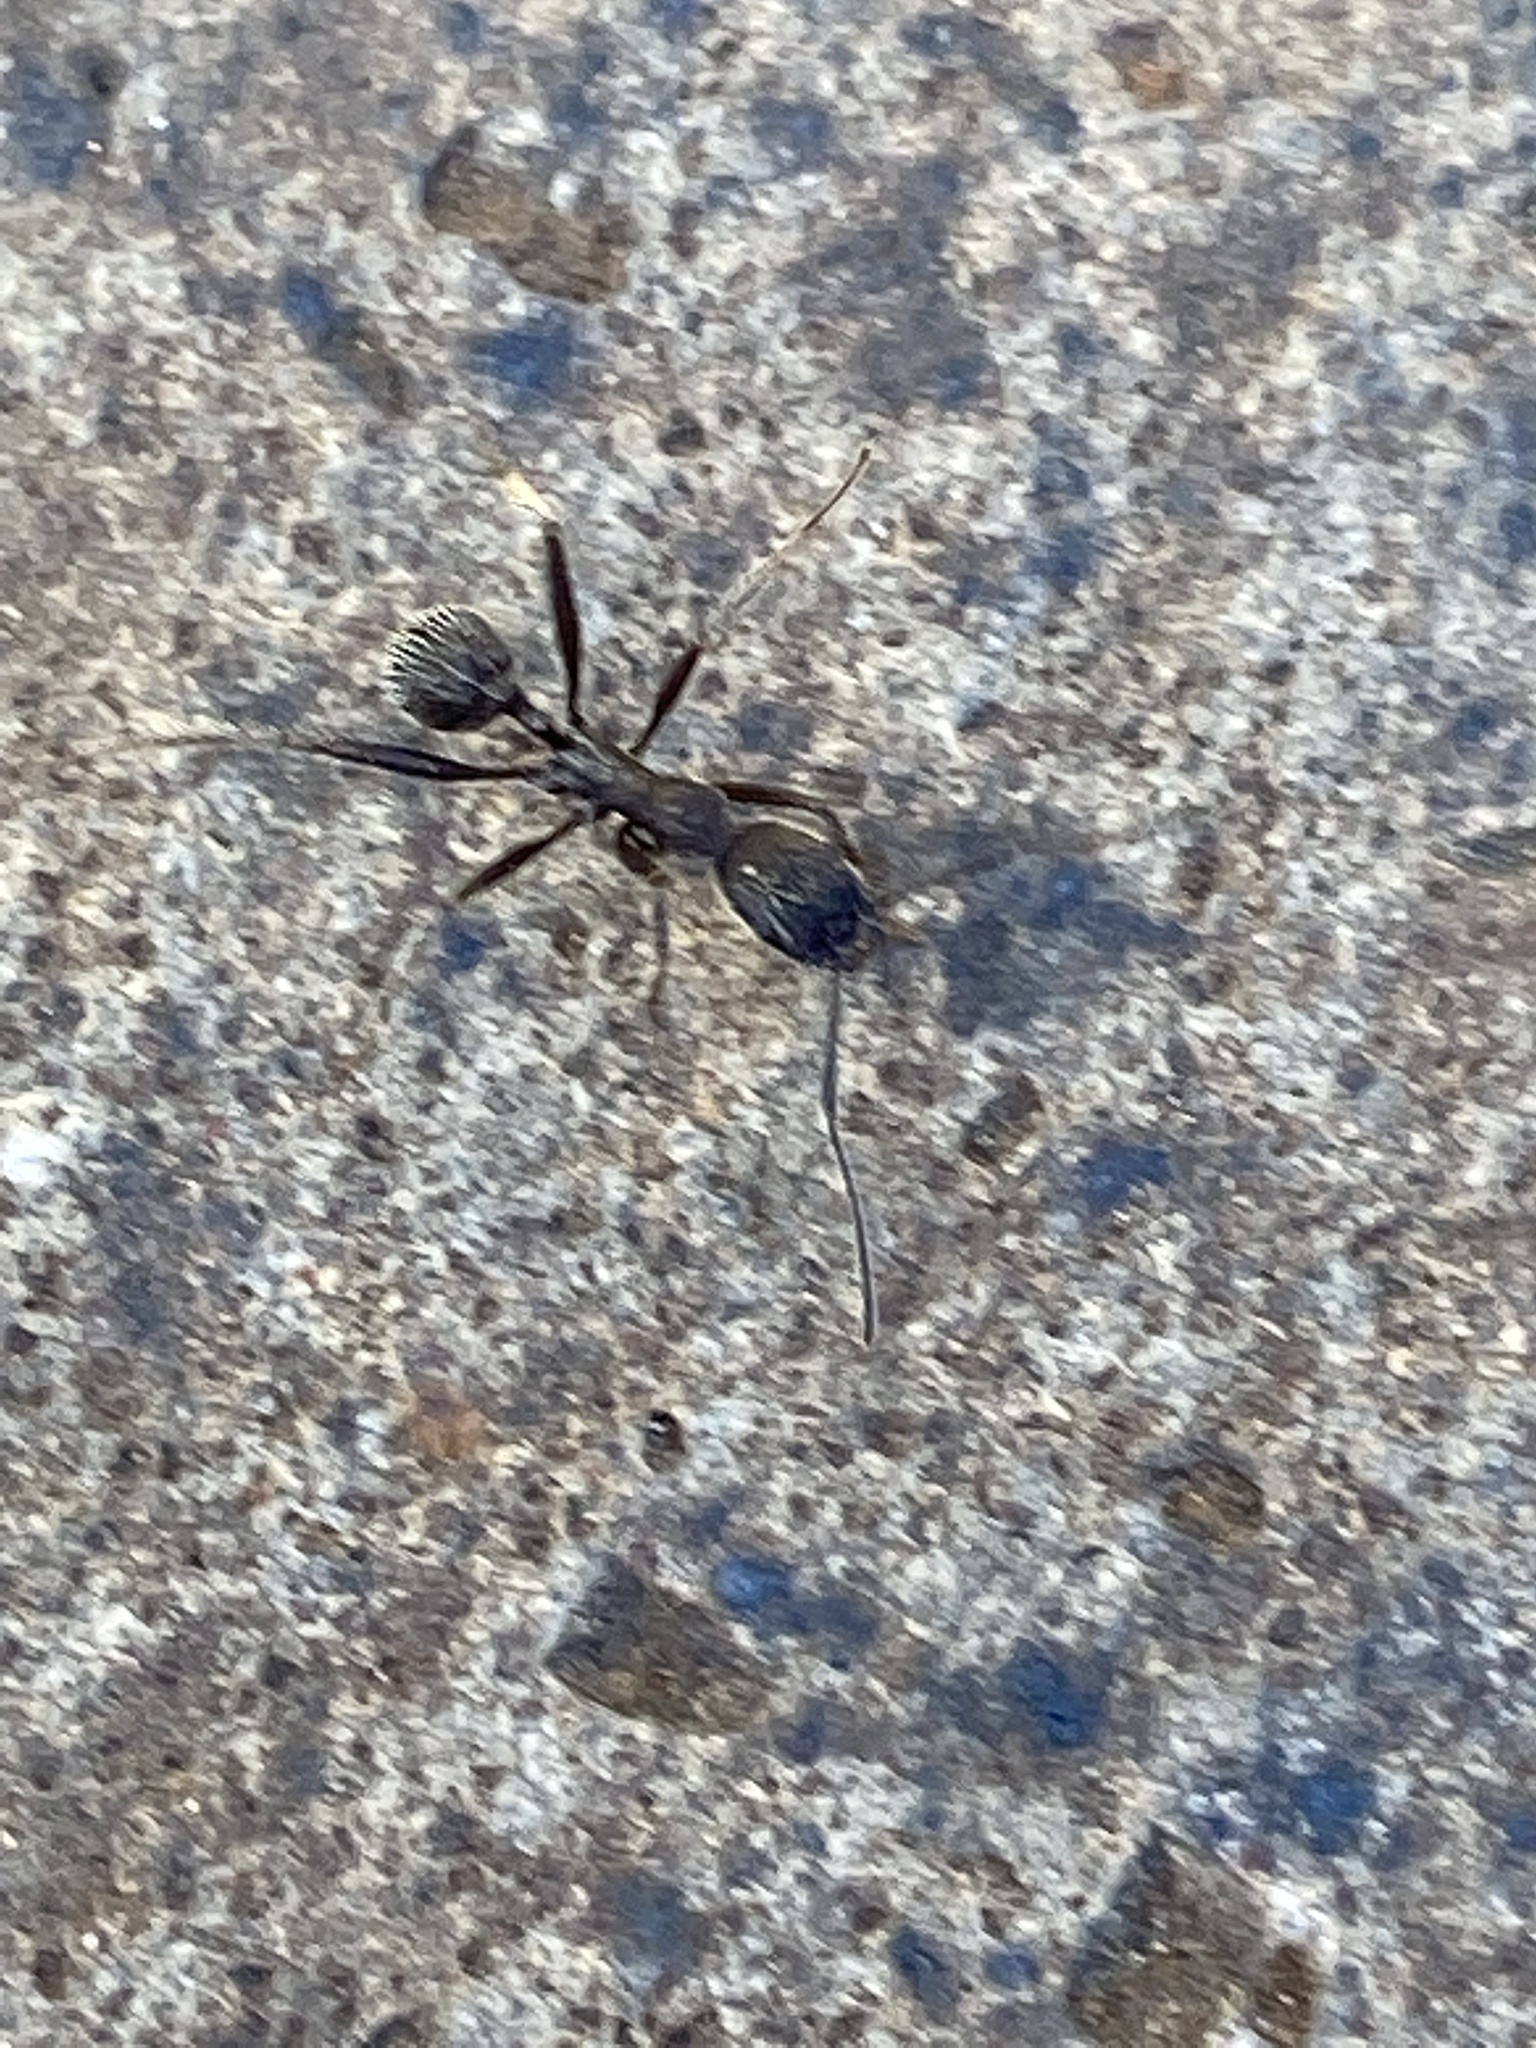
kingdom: Animalia
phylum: Arthropoda
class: Insecta
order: Hymenoptera
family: Formicidae
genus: Aphaenogaster
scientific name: Aphaenogaster senilis
